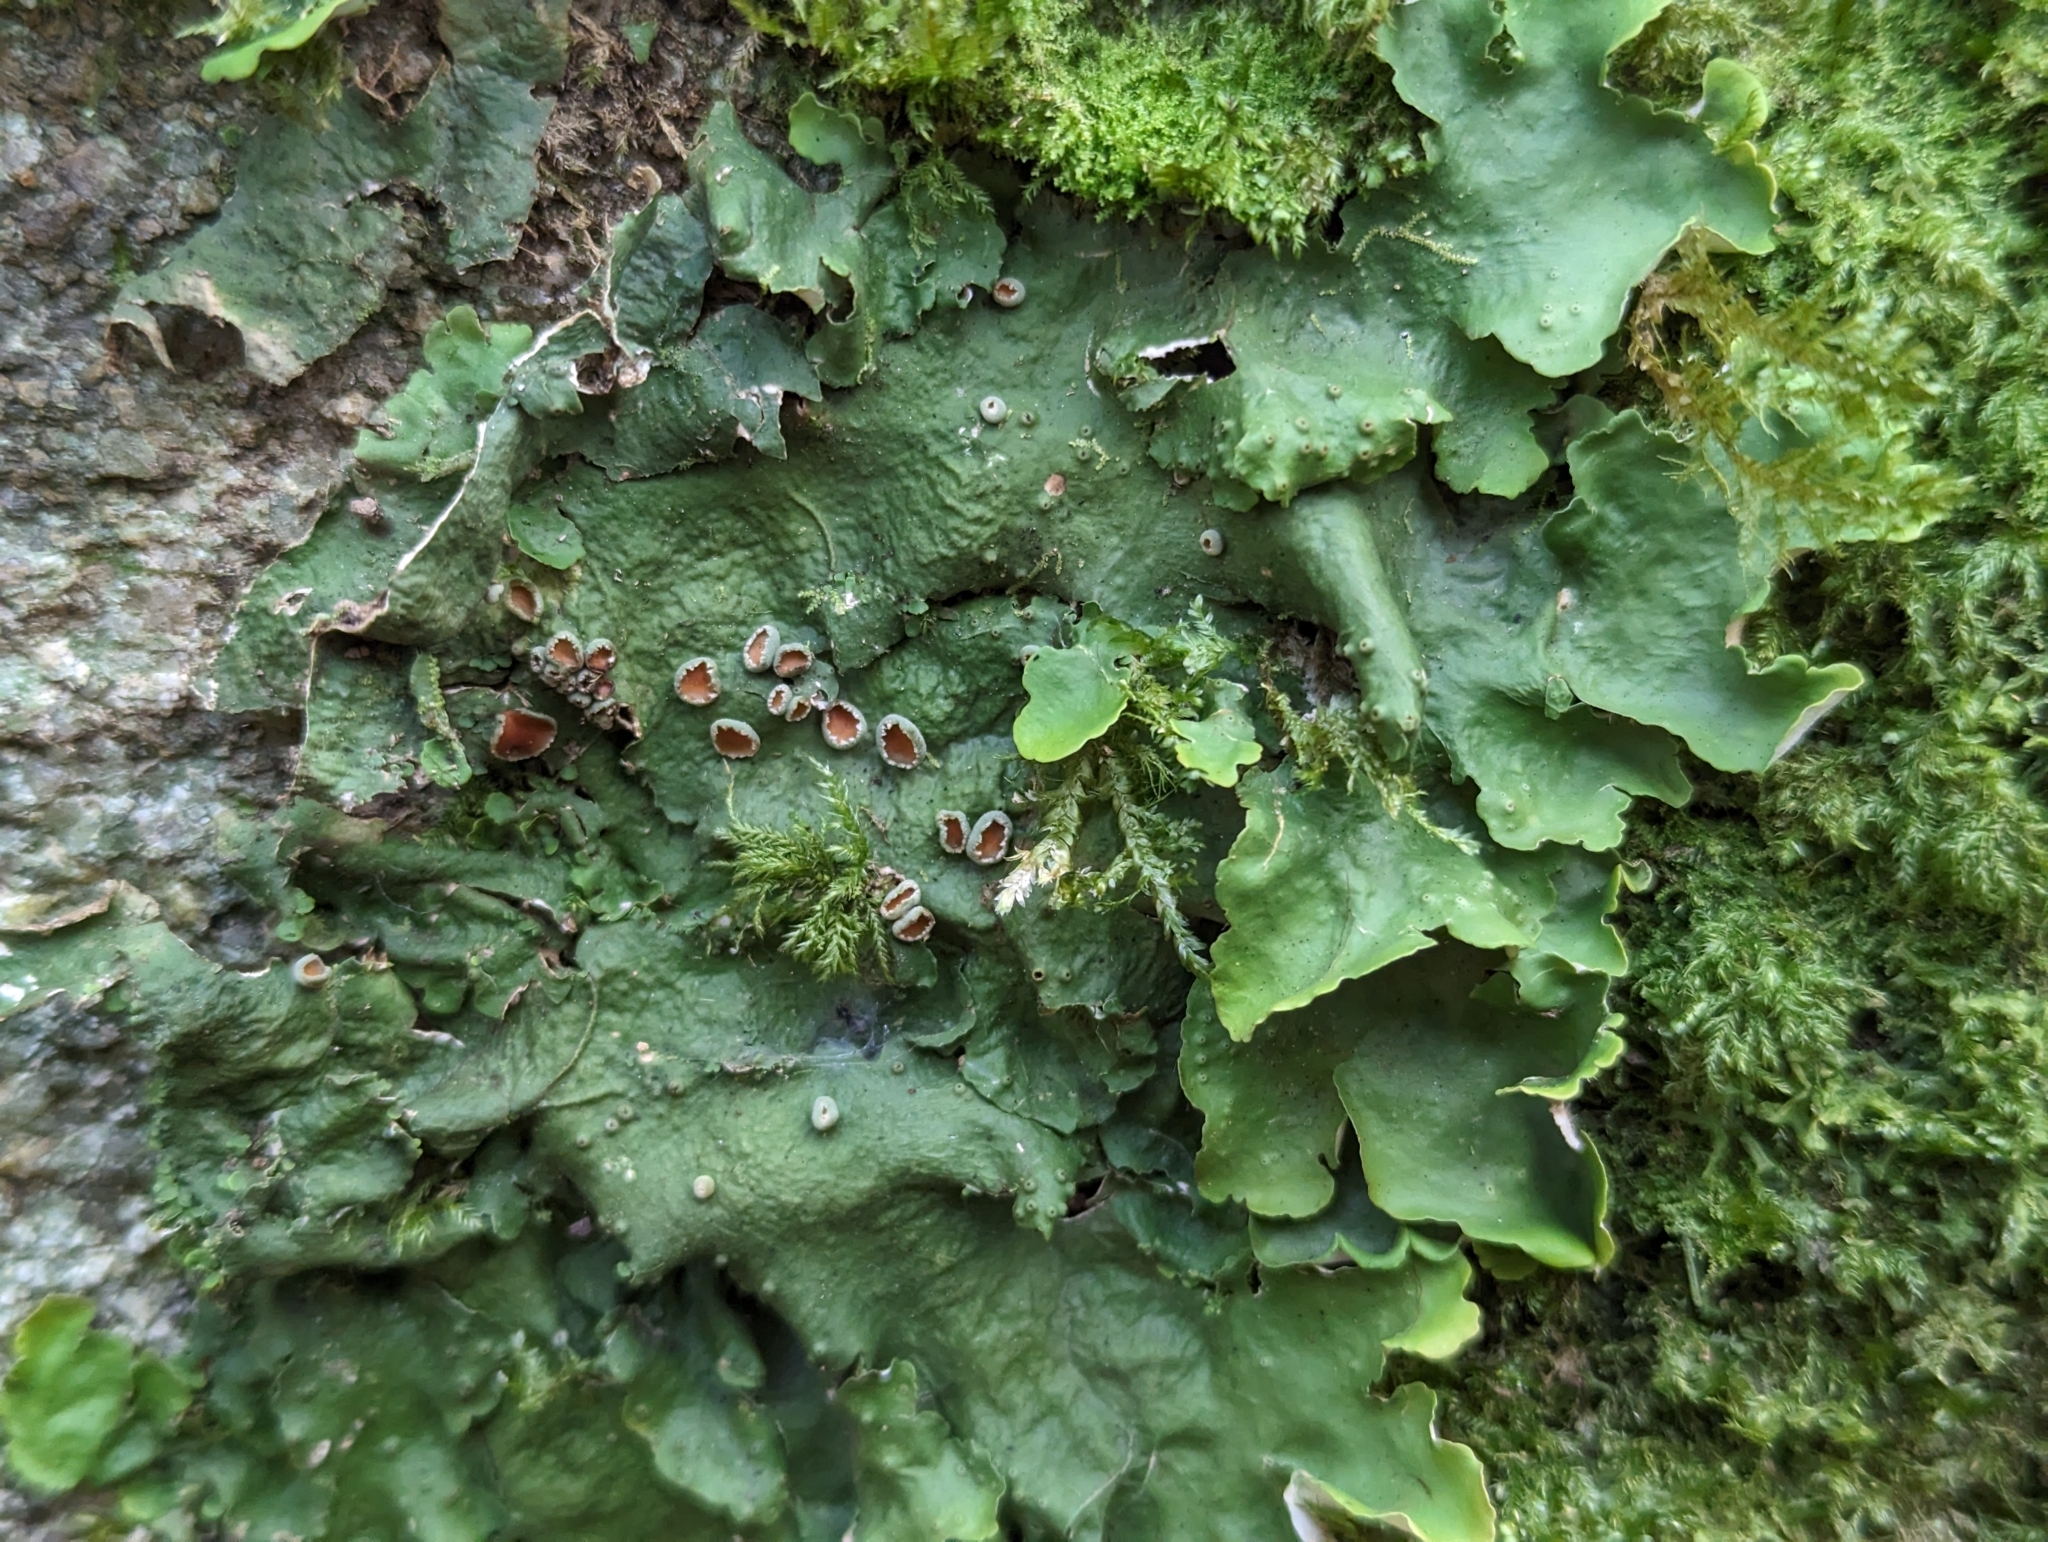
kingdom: Fungi
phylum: Ascomycota
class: Lecanoromycetes
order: Peltigerales
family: Lobariaceae
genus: Ricasolia
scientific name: Ricasolia virens
